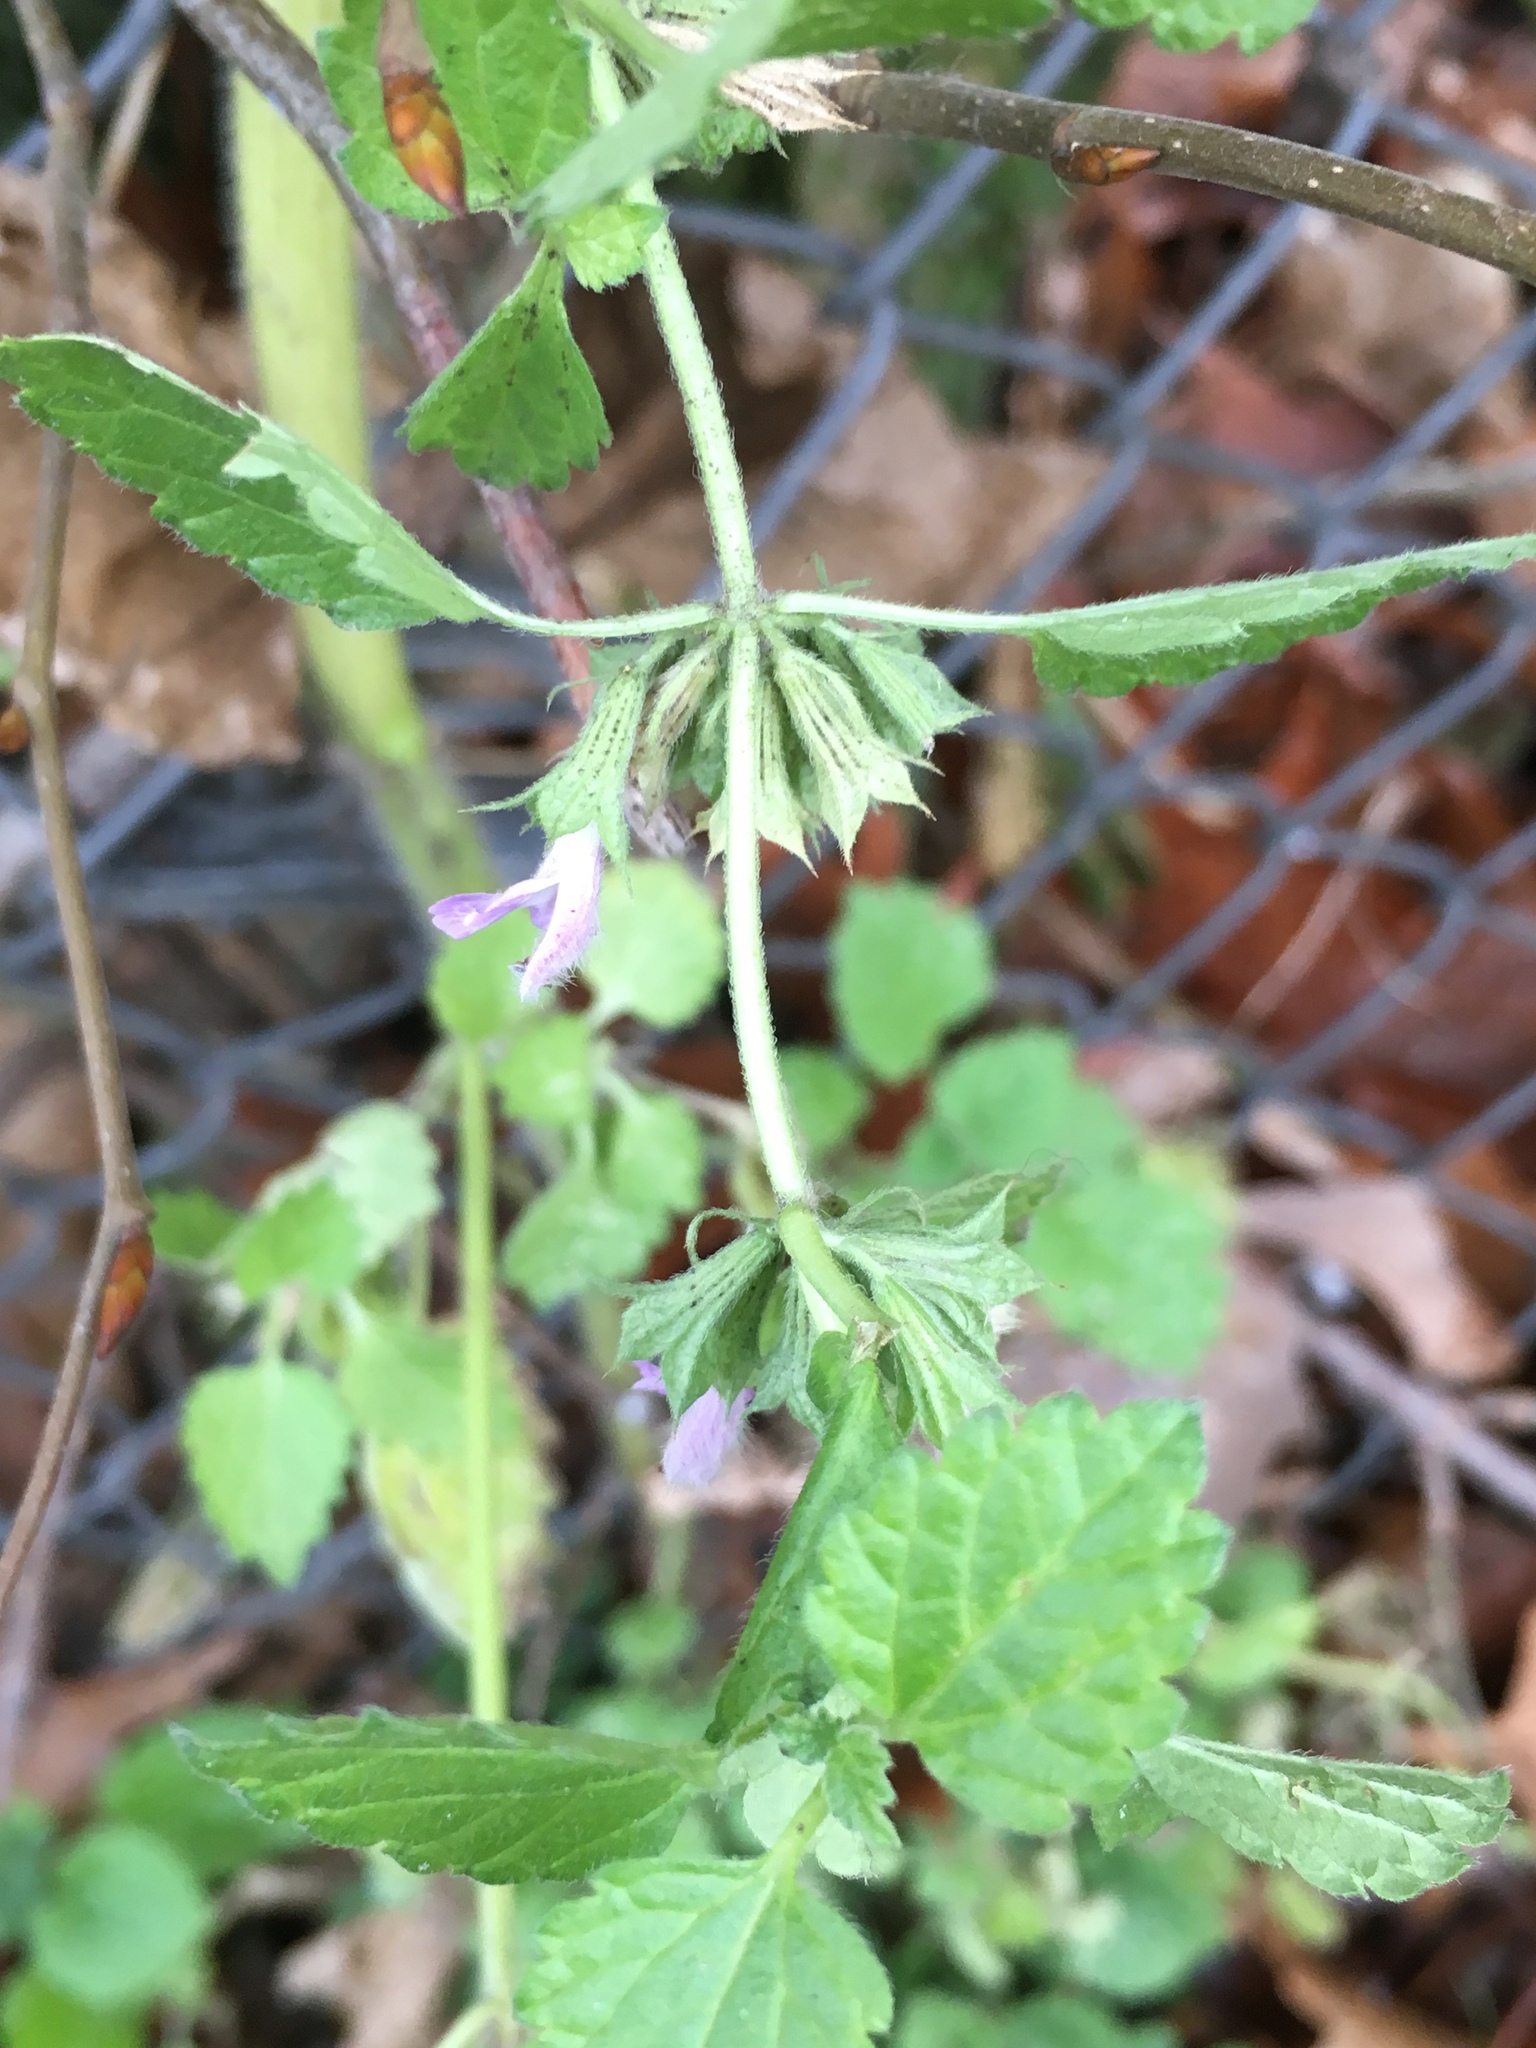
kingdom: Plantae
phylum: Tracheophyta
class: Magnoliopsida
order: Lamiales
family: Lamiaceae
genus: Ballota
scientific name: Ballota nigra
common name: Black horehound
